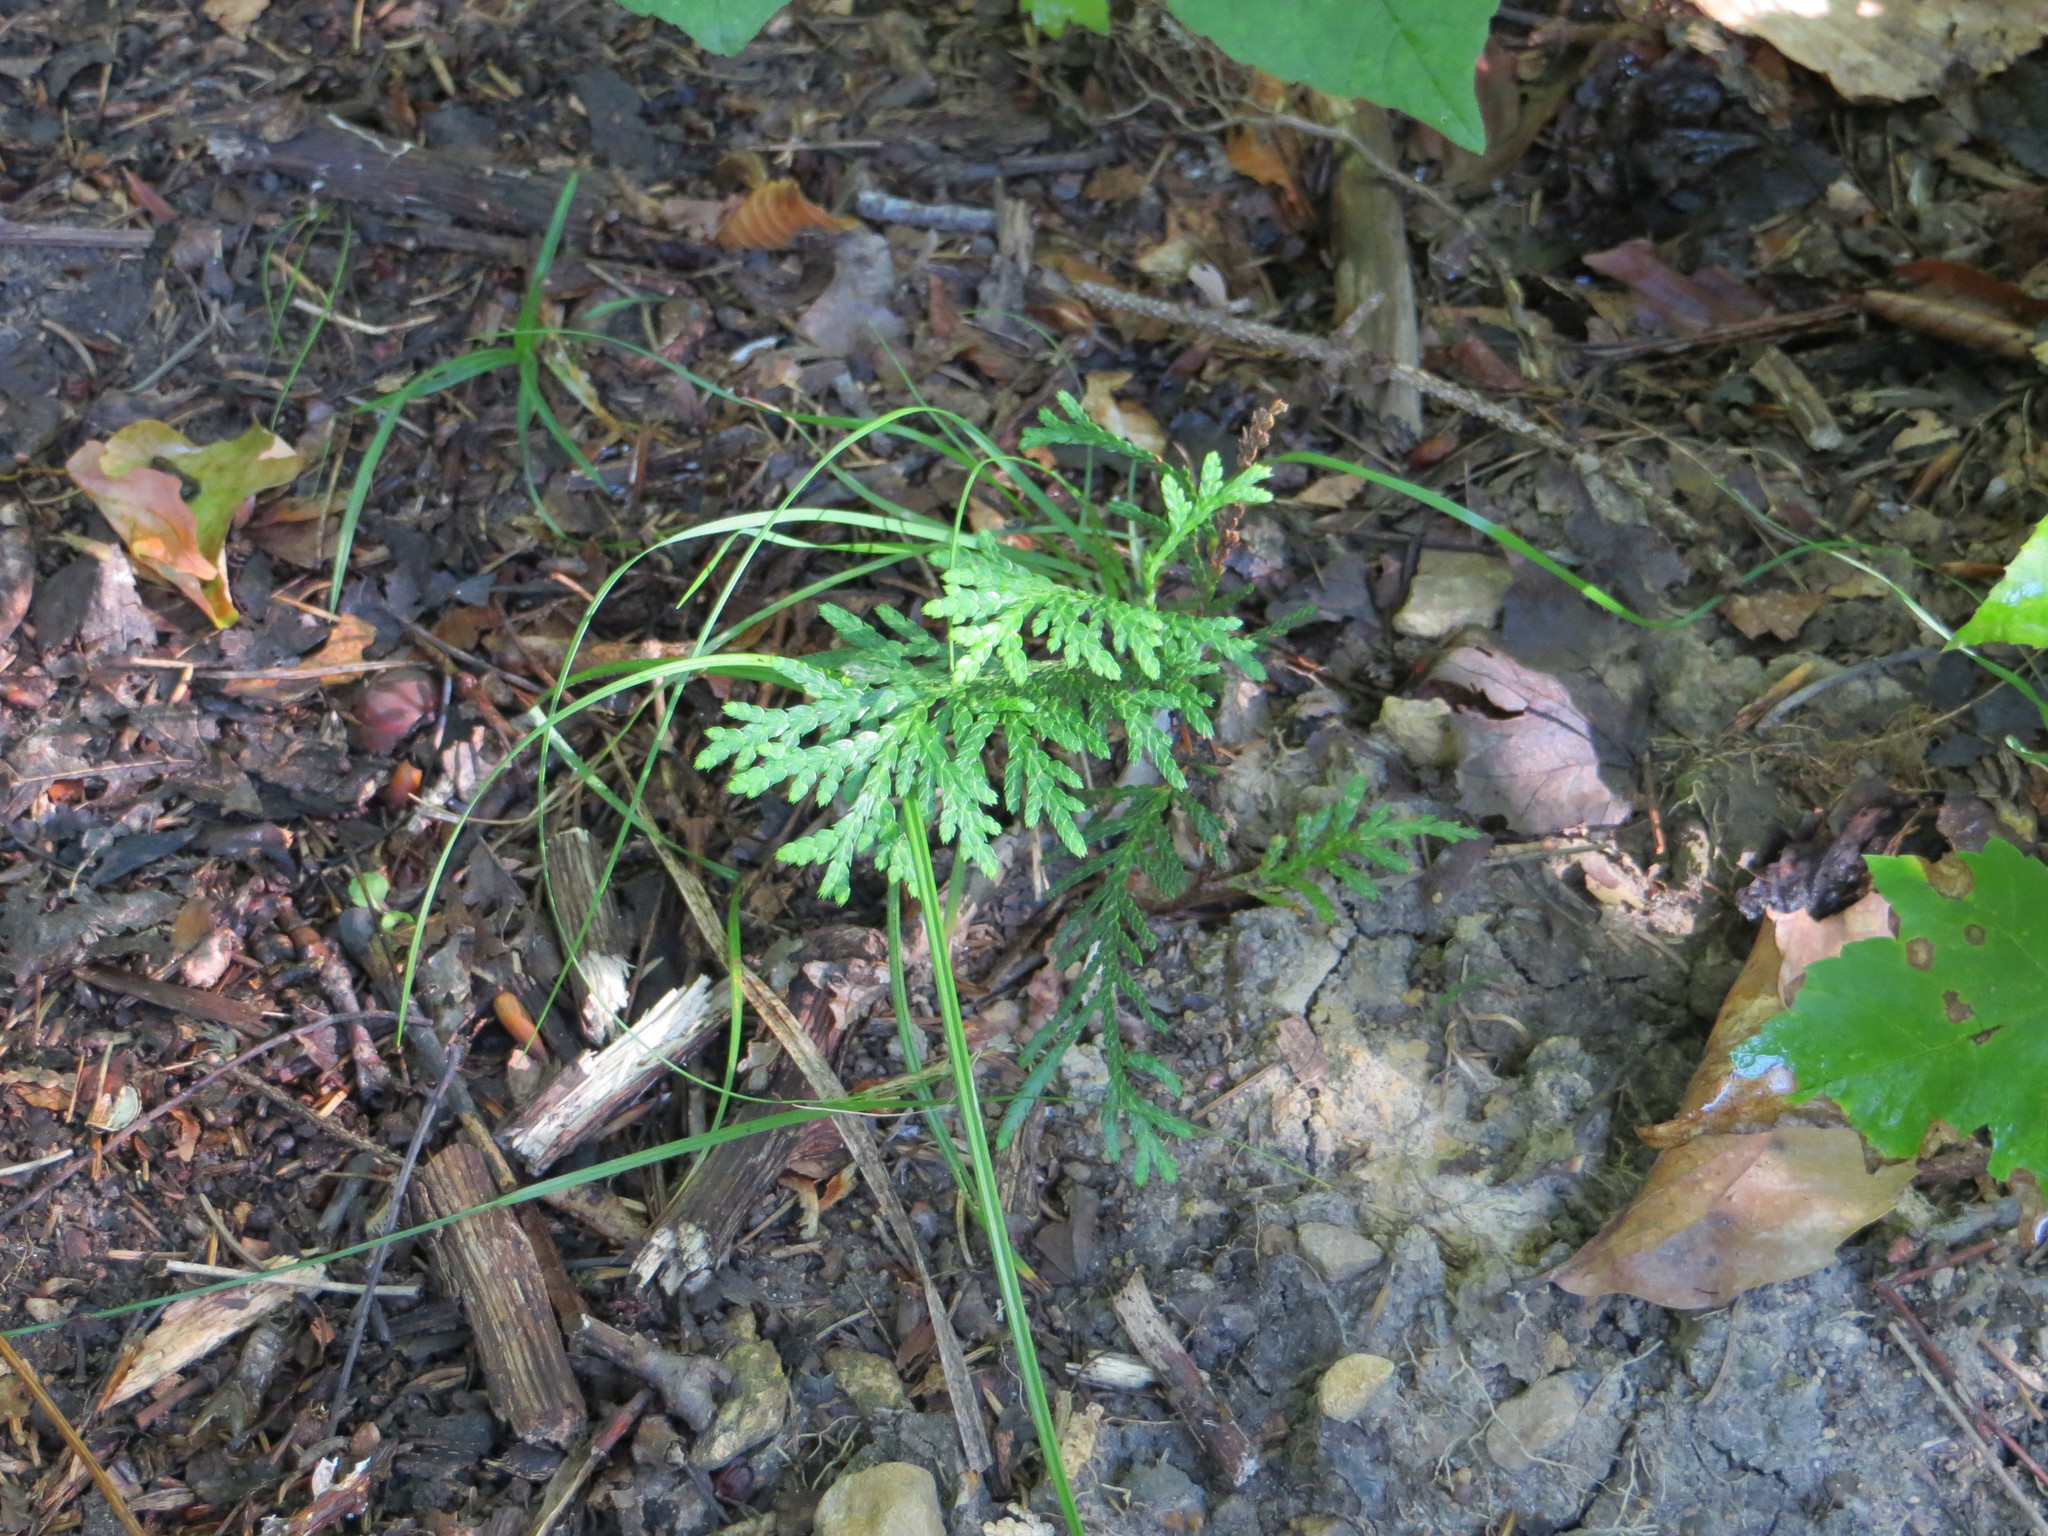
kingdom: Plantae
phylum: Tracheophyta
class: Pinopsida
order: Pinales
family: Cupressaceae
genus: Thuja
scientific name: Thuja occidentalis
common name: Northern white-cedar
